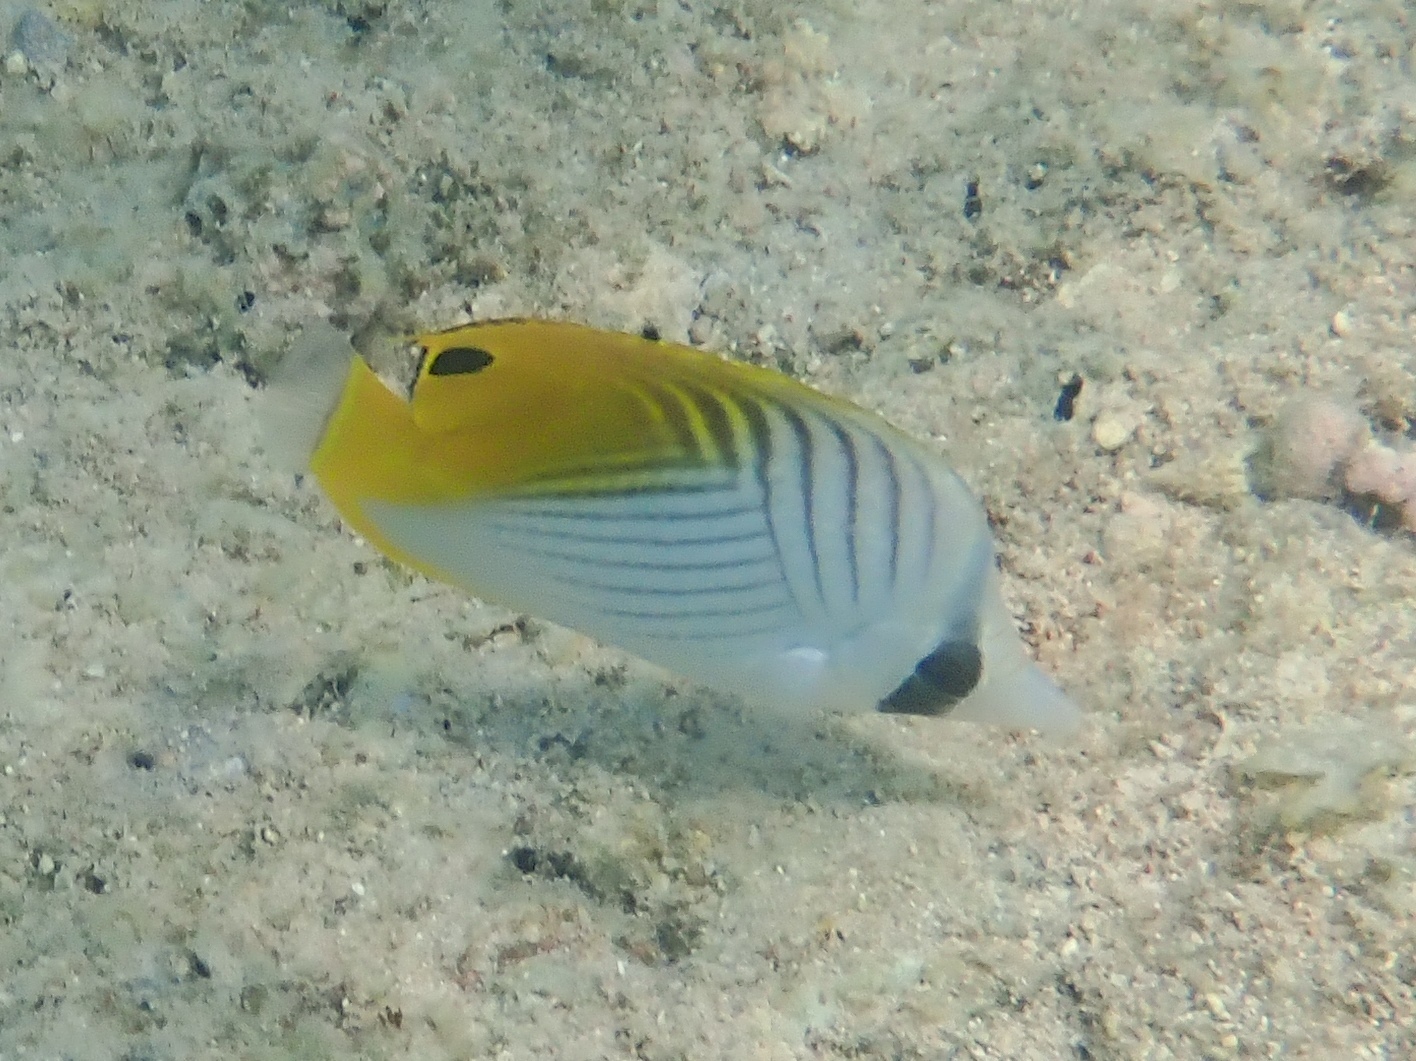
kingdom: Animalia
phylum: Chordata
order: Perciformes
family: Chaetodontidae
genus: Chaetodon
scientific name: Chaetodon auriga
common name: Threadfin butterflyfish
